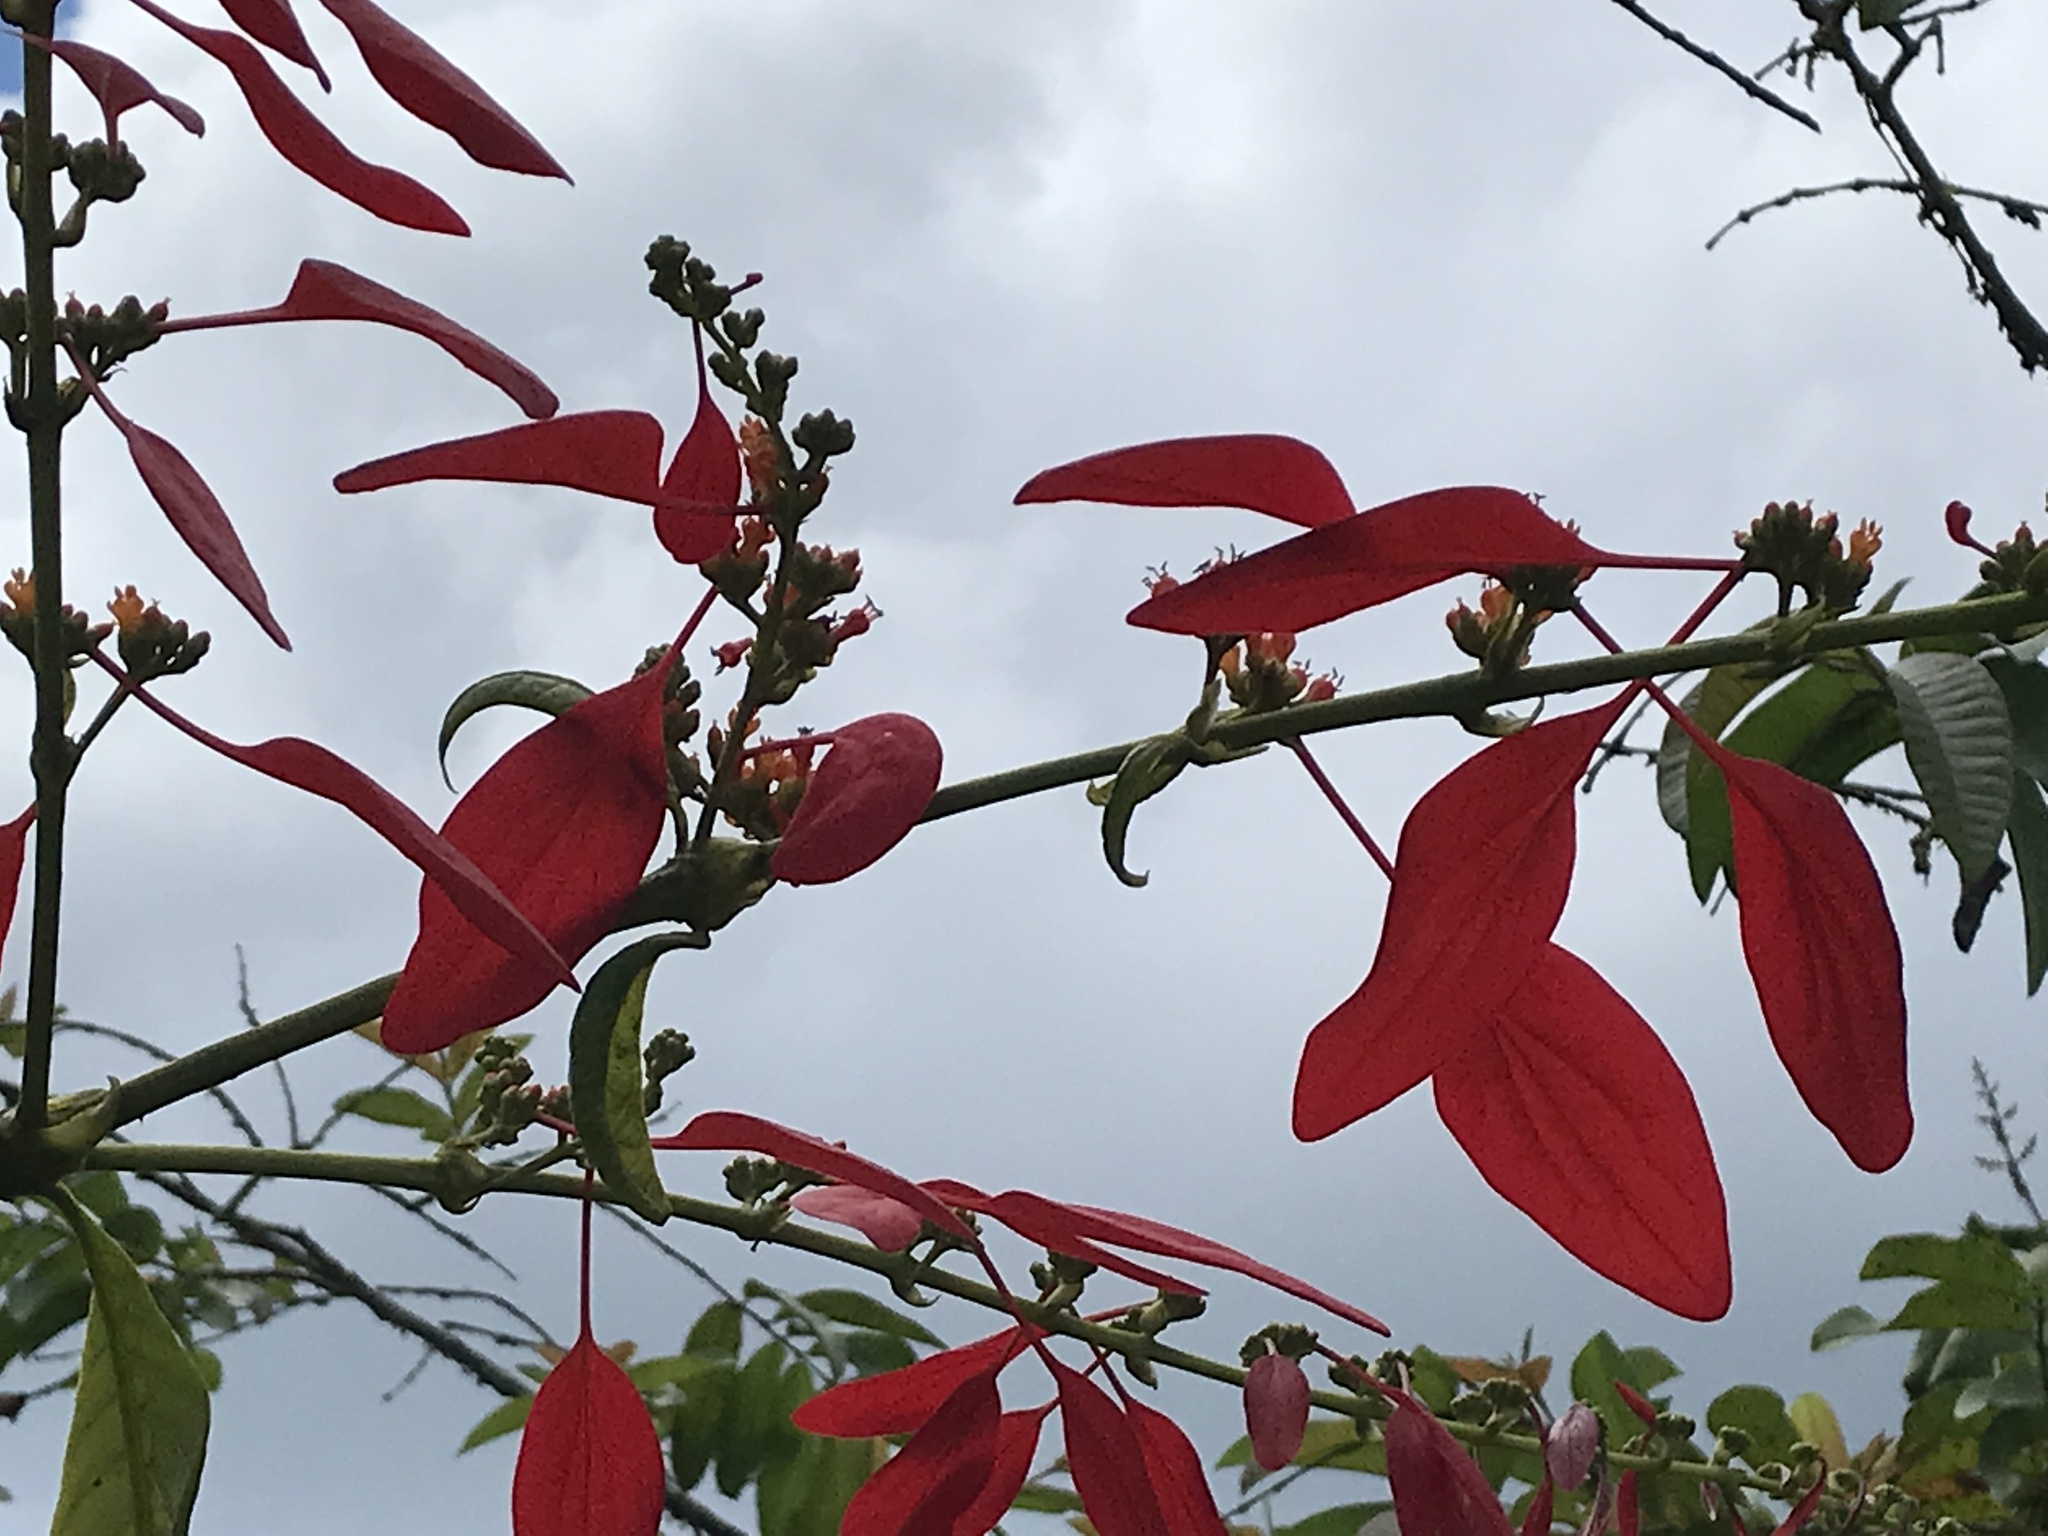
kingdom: Plantae
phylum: Tracheophyta
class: Magnoliopsida
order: Gentianales
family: Rubiaceae
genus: Warszewiczia
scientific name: Warszewiczia coccinea
